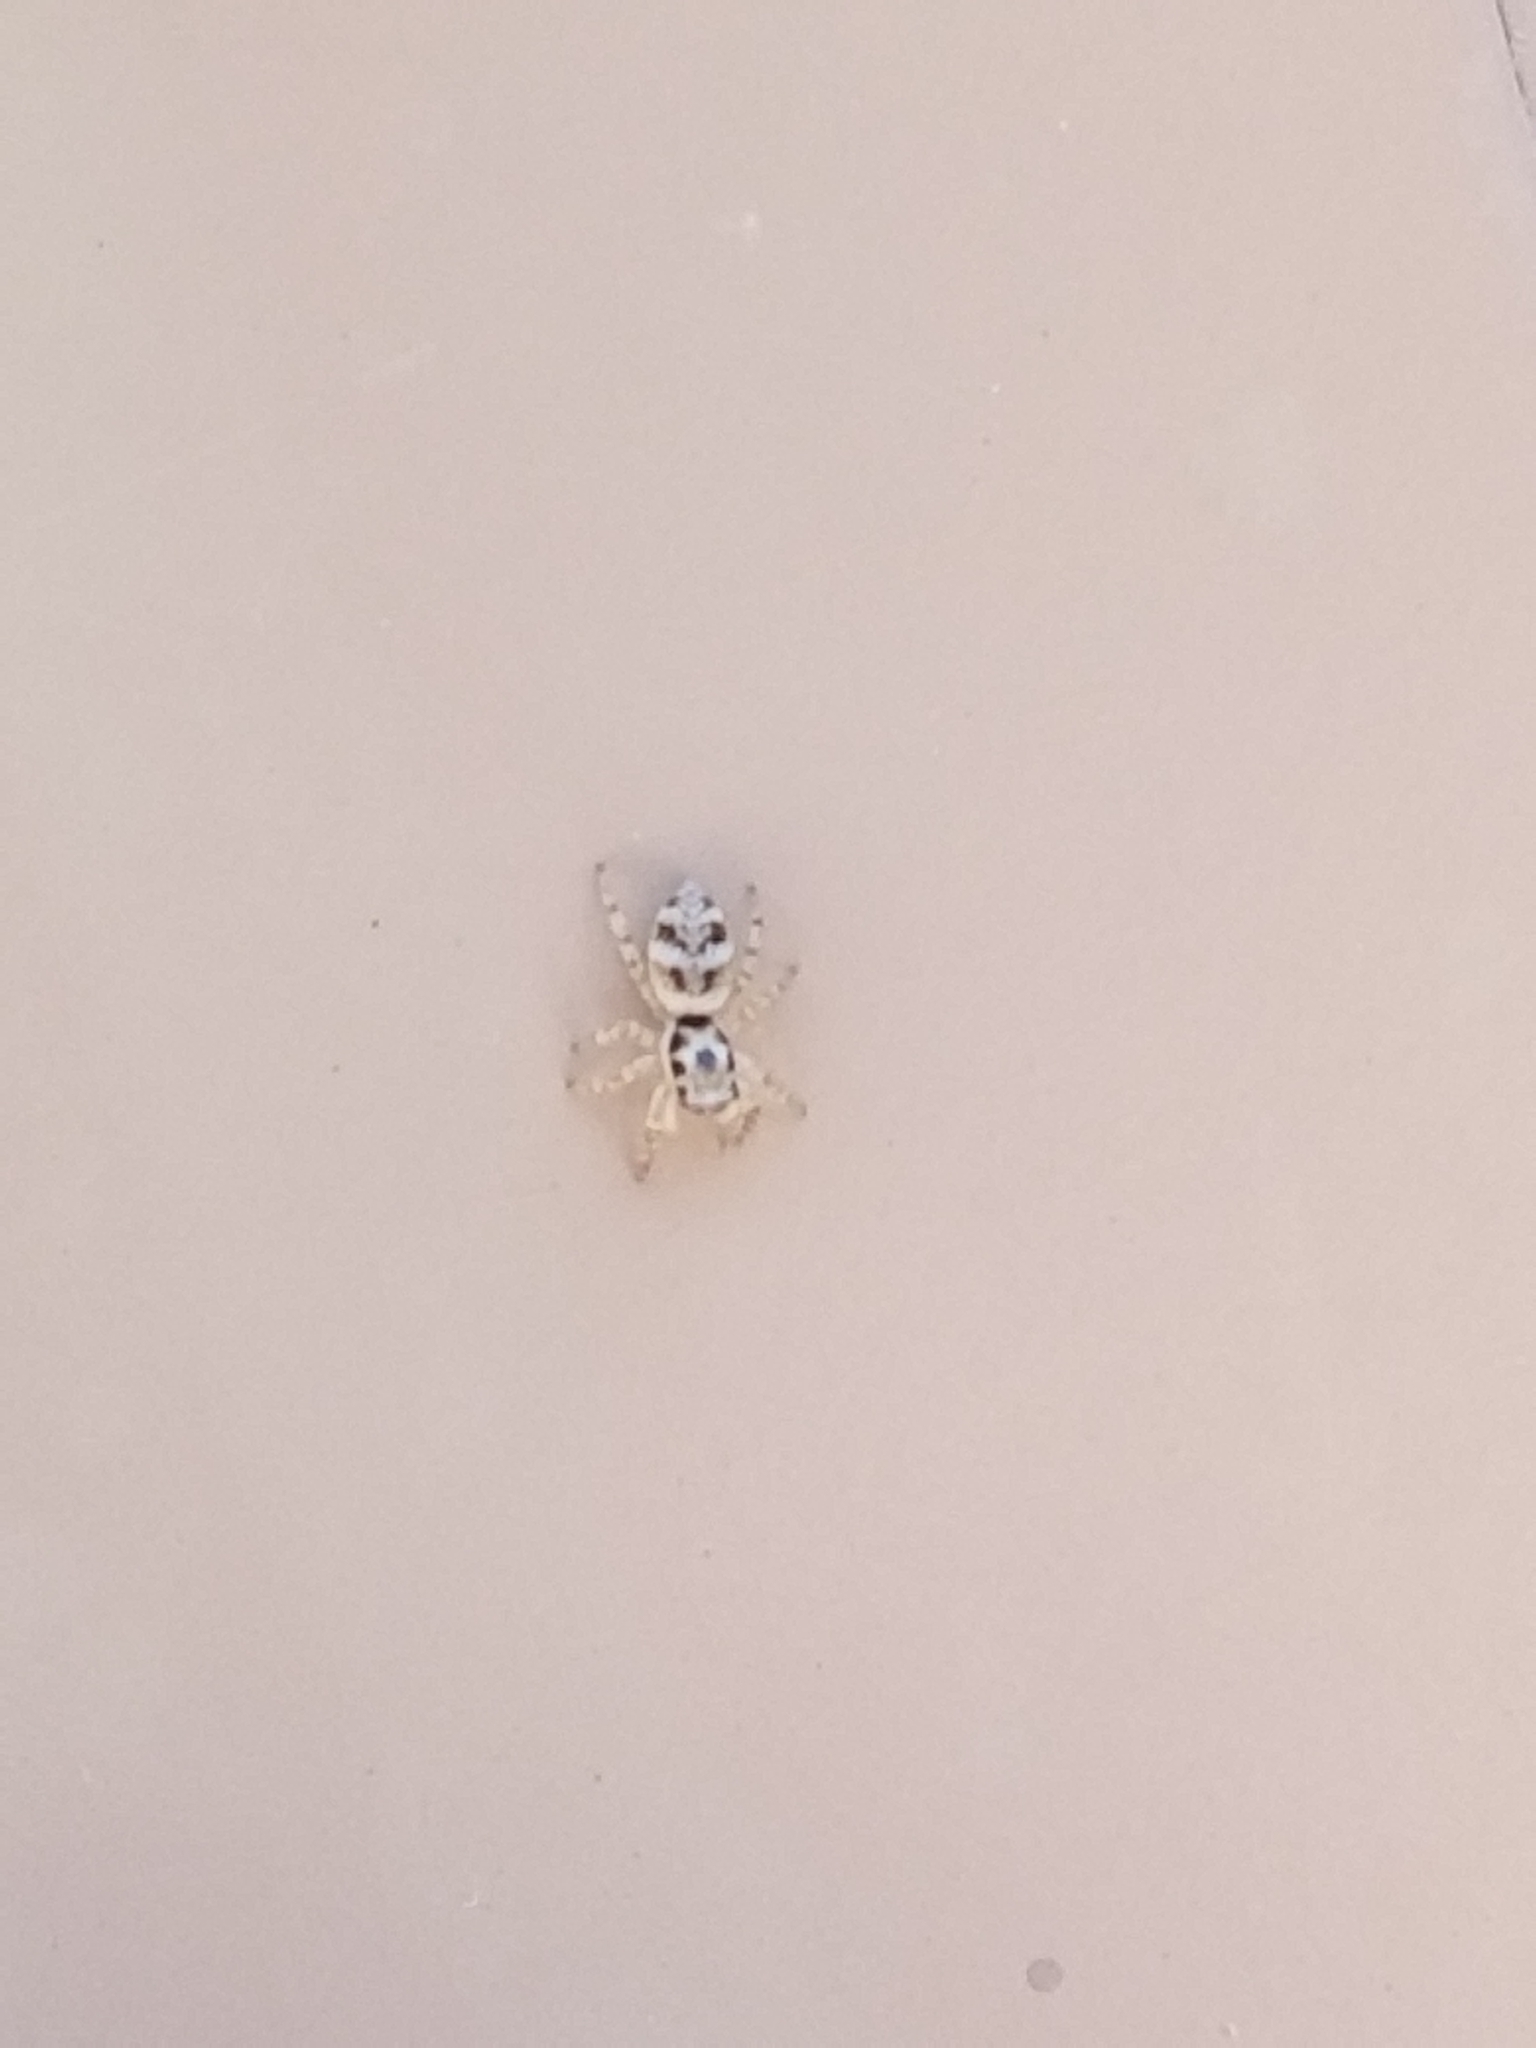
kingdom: Animalia
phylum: Arthropoda
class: Arachnida
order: Araneae
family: Salticidae
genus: Salticus
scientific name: Salticus scenicus
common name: Zebra jumper
